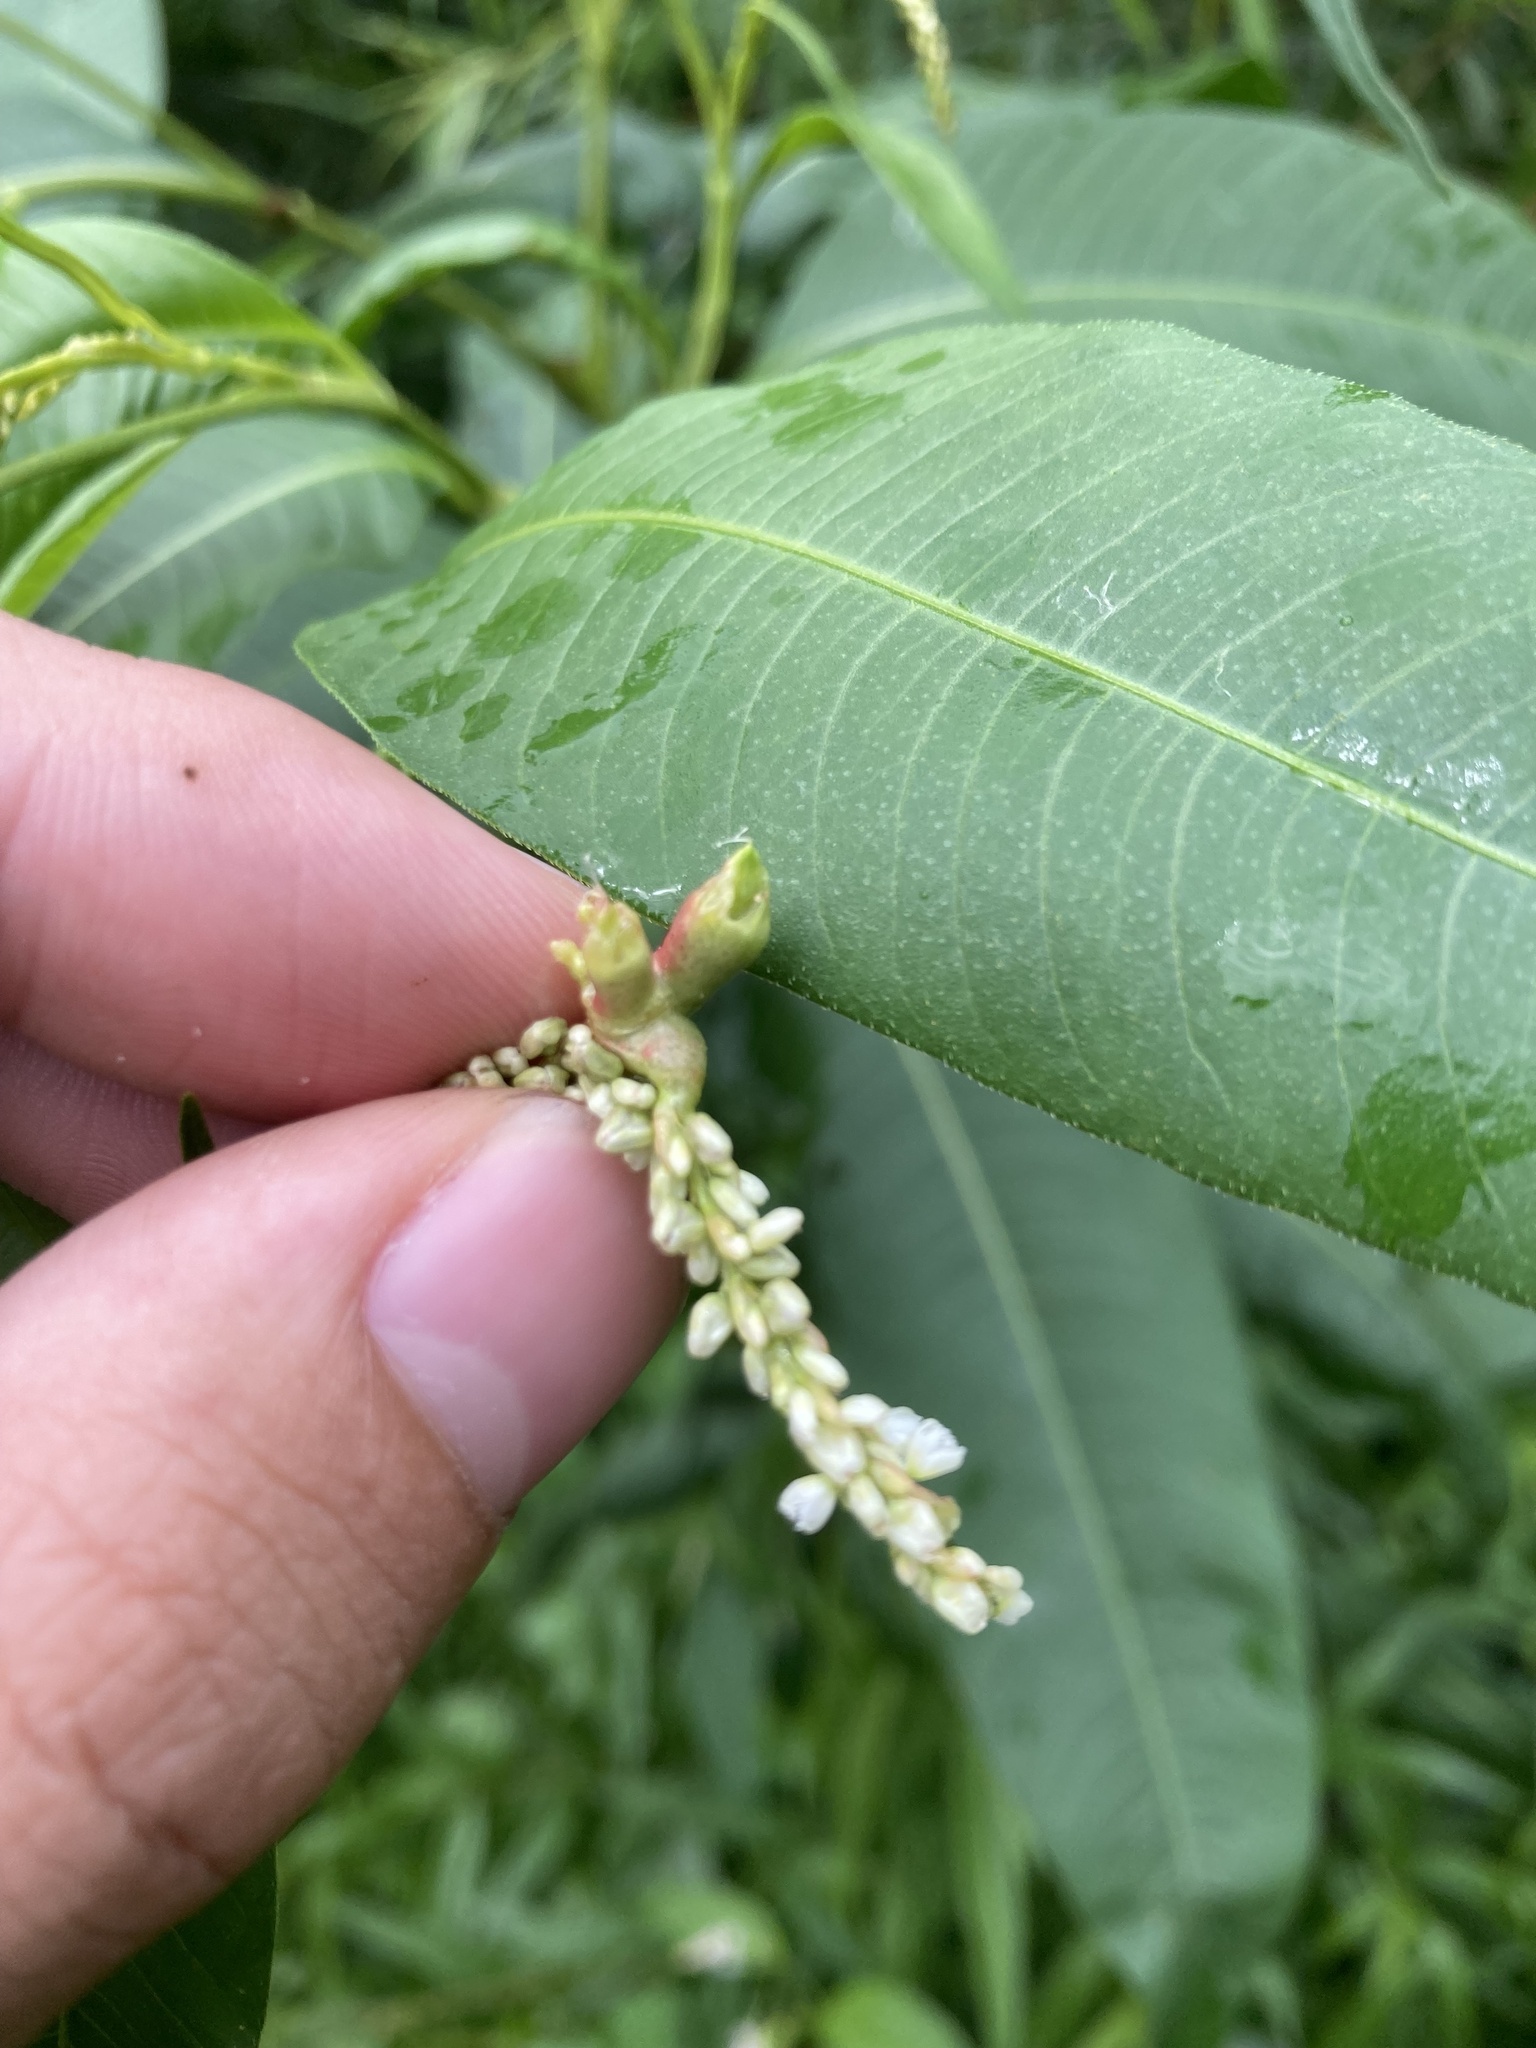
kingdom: Fungi
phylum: Basidiomycota
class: Ustilaginomycetes
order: Ustilaginales
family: Ustilaginaceae
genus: Melanopsichium
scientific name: Melanopsichium pennsylvanicum
